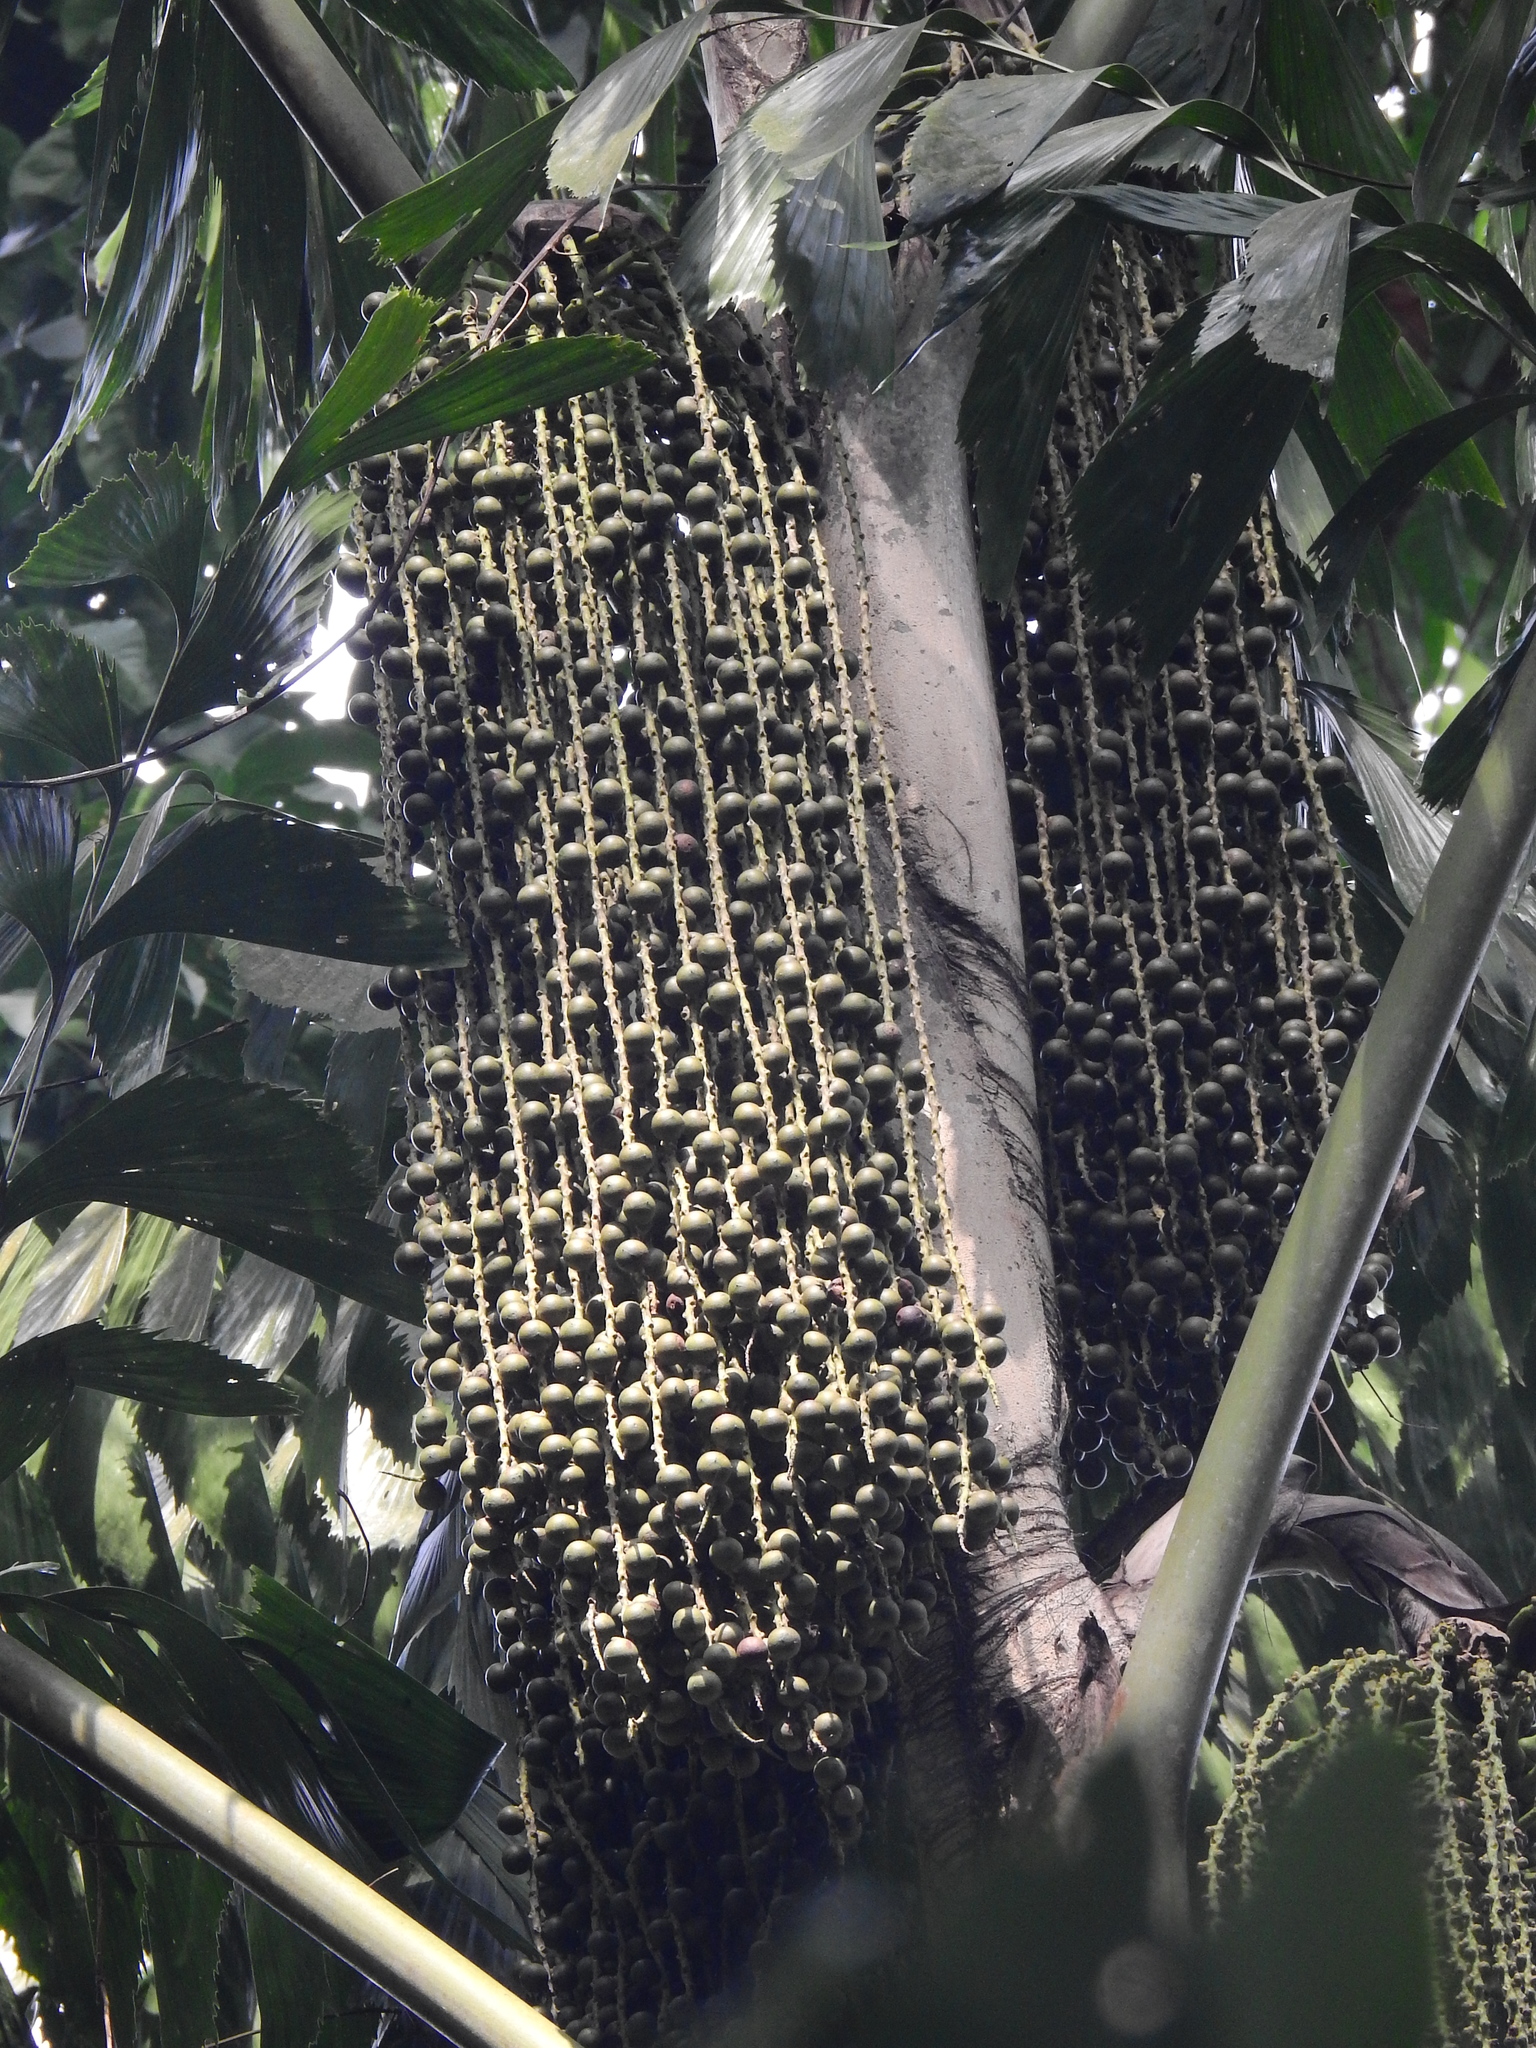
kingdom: Plantae
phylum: Tracheophyta
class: Liliopsida
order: Arecales
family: Arecaceae
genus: Caryota
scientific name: Caryota mitis
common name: Burmese fishtail palm
